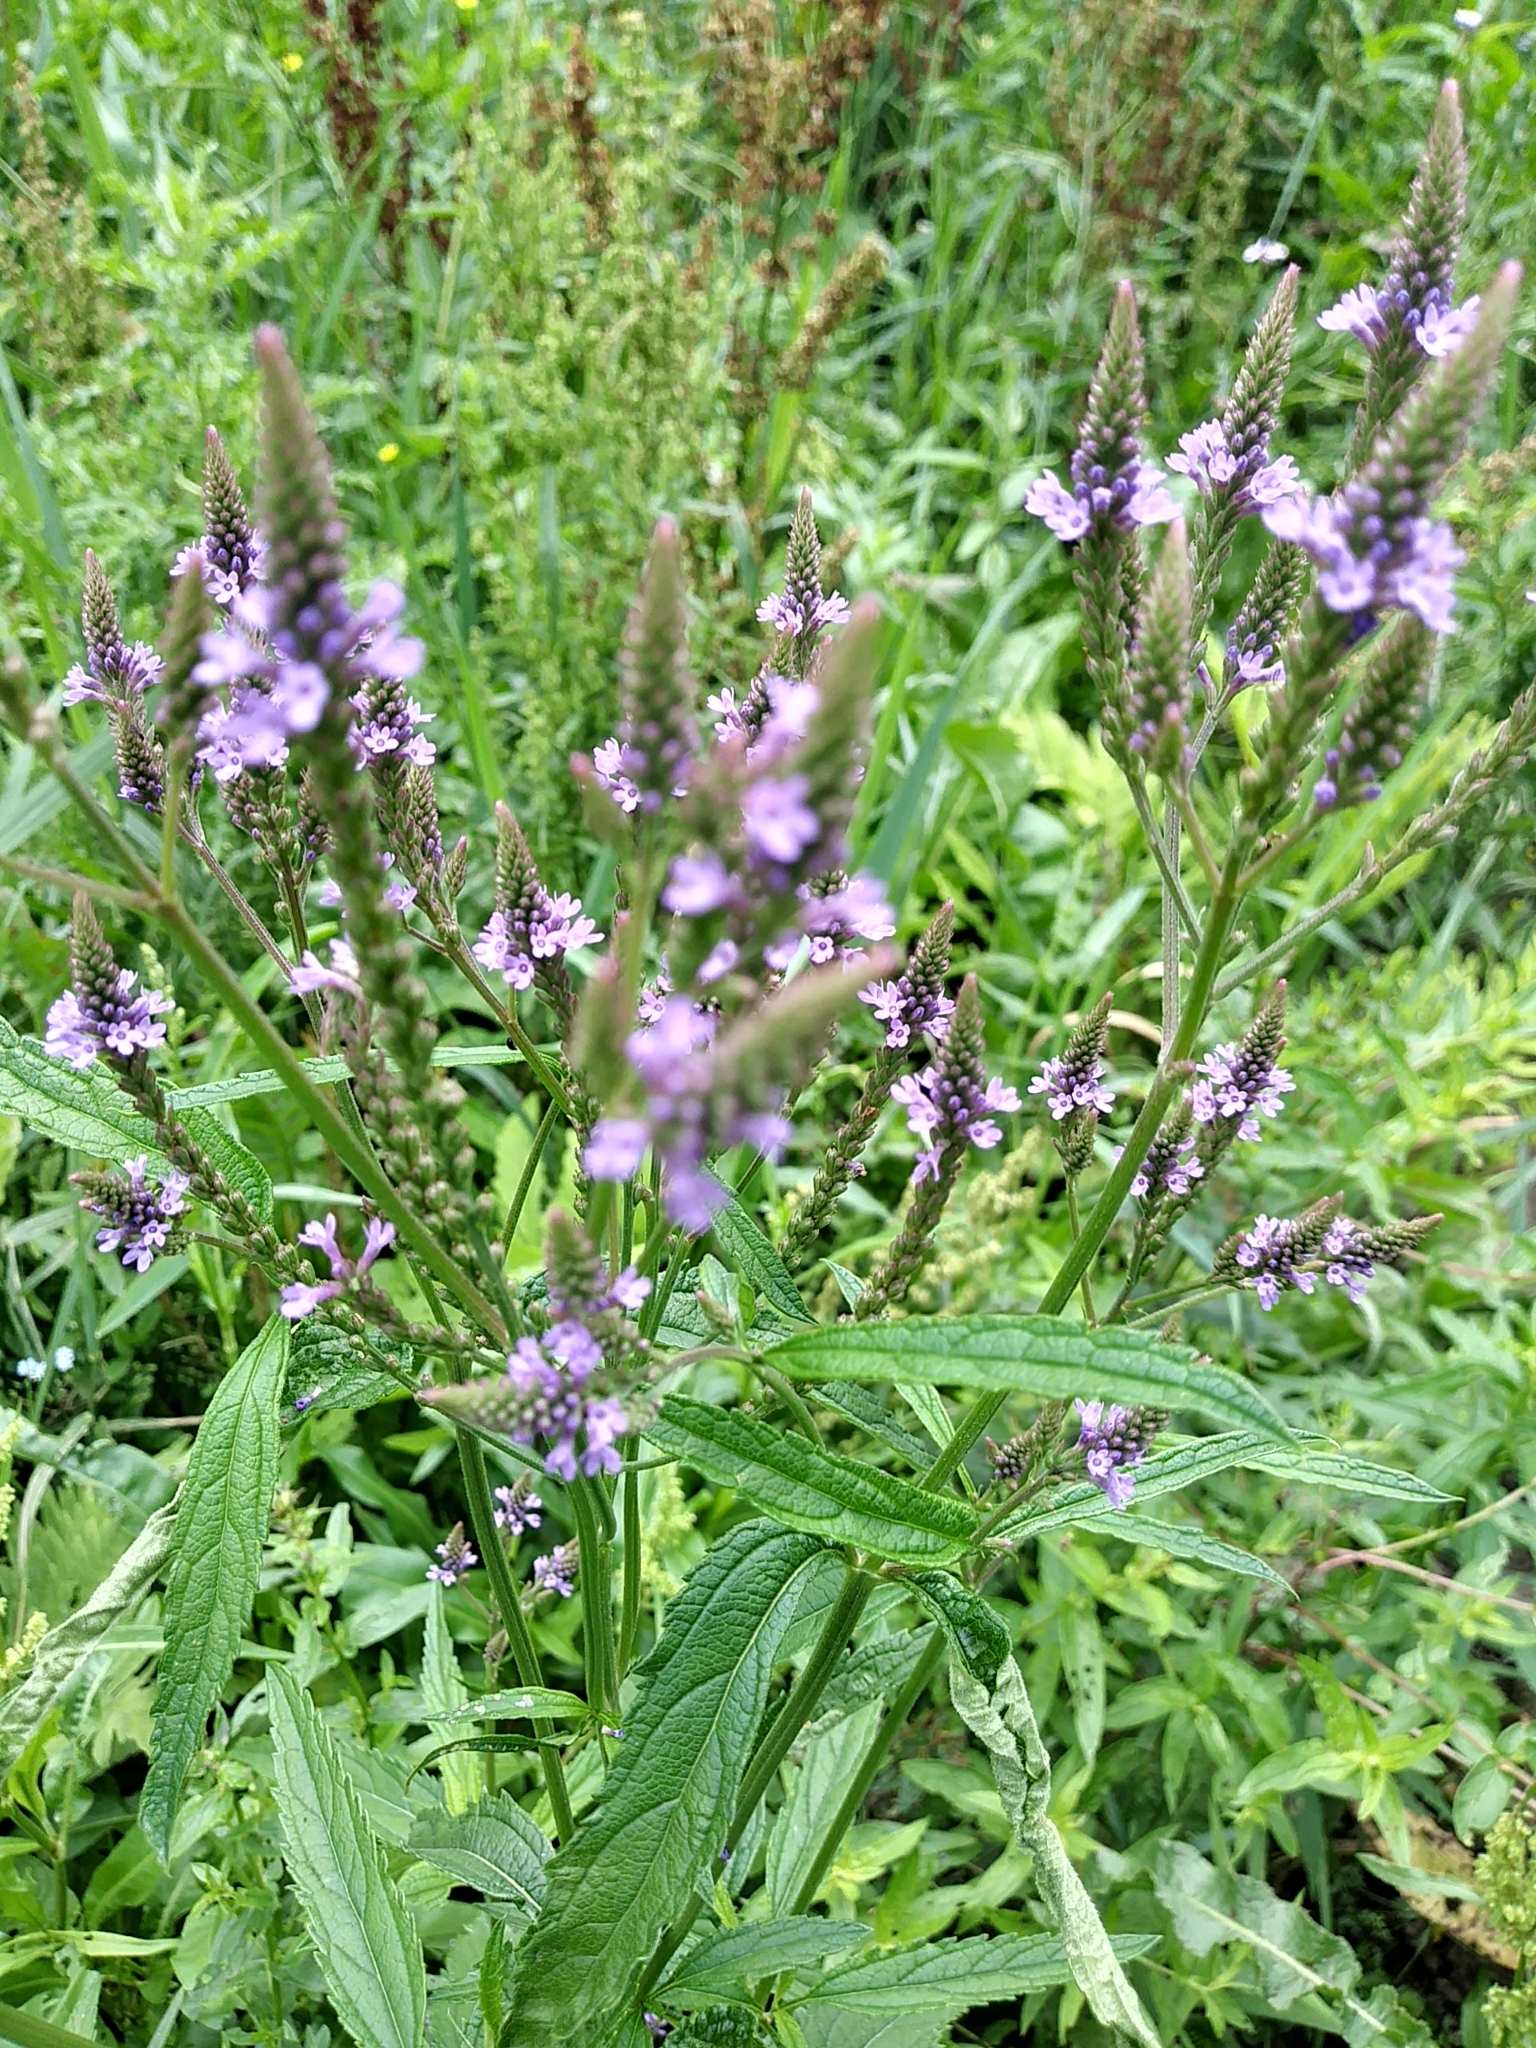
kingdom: Plantae
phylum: Tracheophyta
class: Magnoliopsida
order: Lamiales
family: Verbenaceae
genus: Verbena
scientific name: Verbena hastata
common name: American blue vervain
